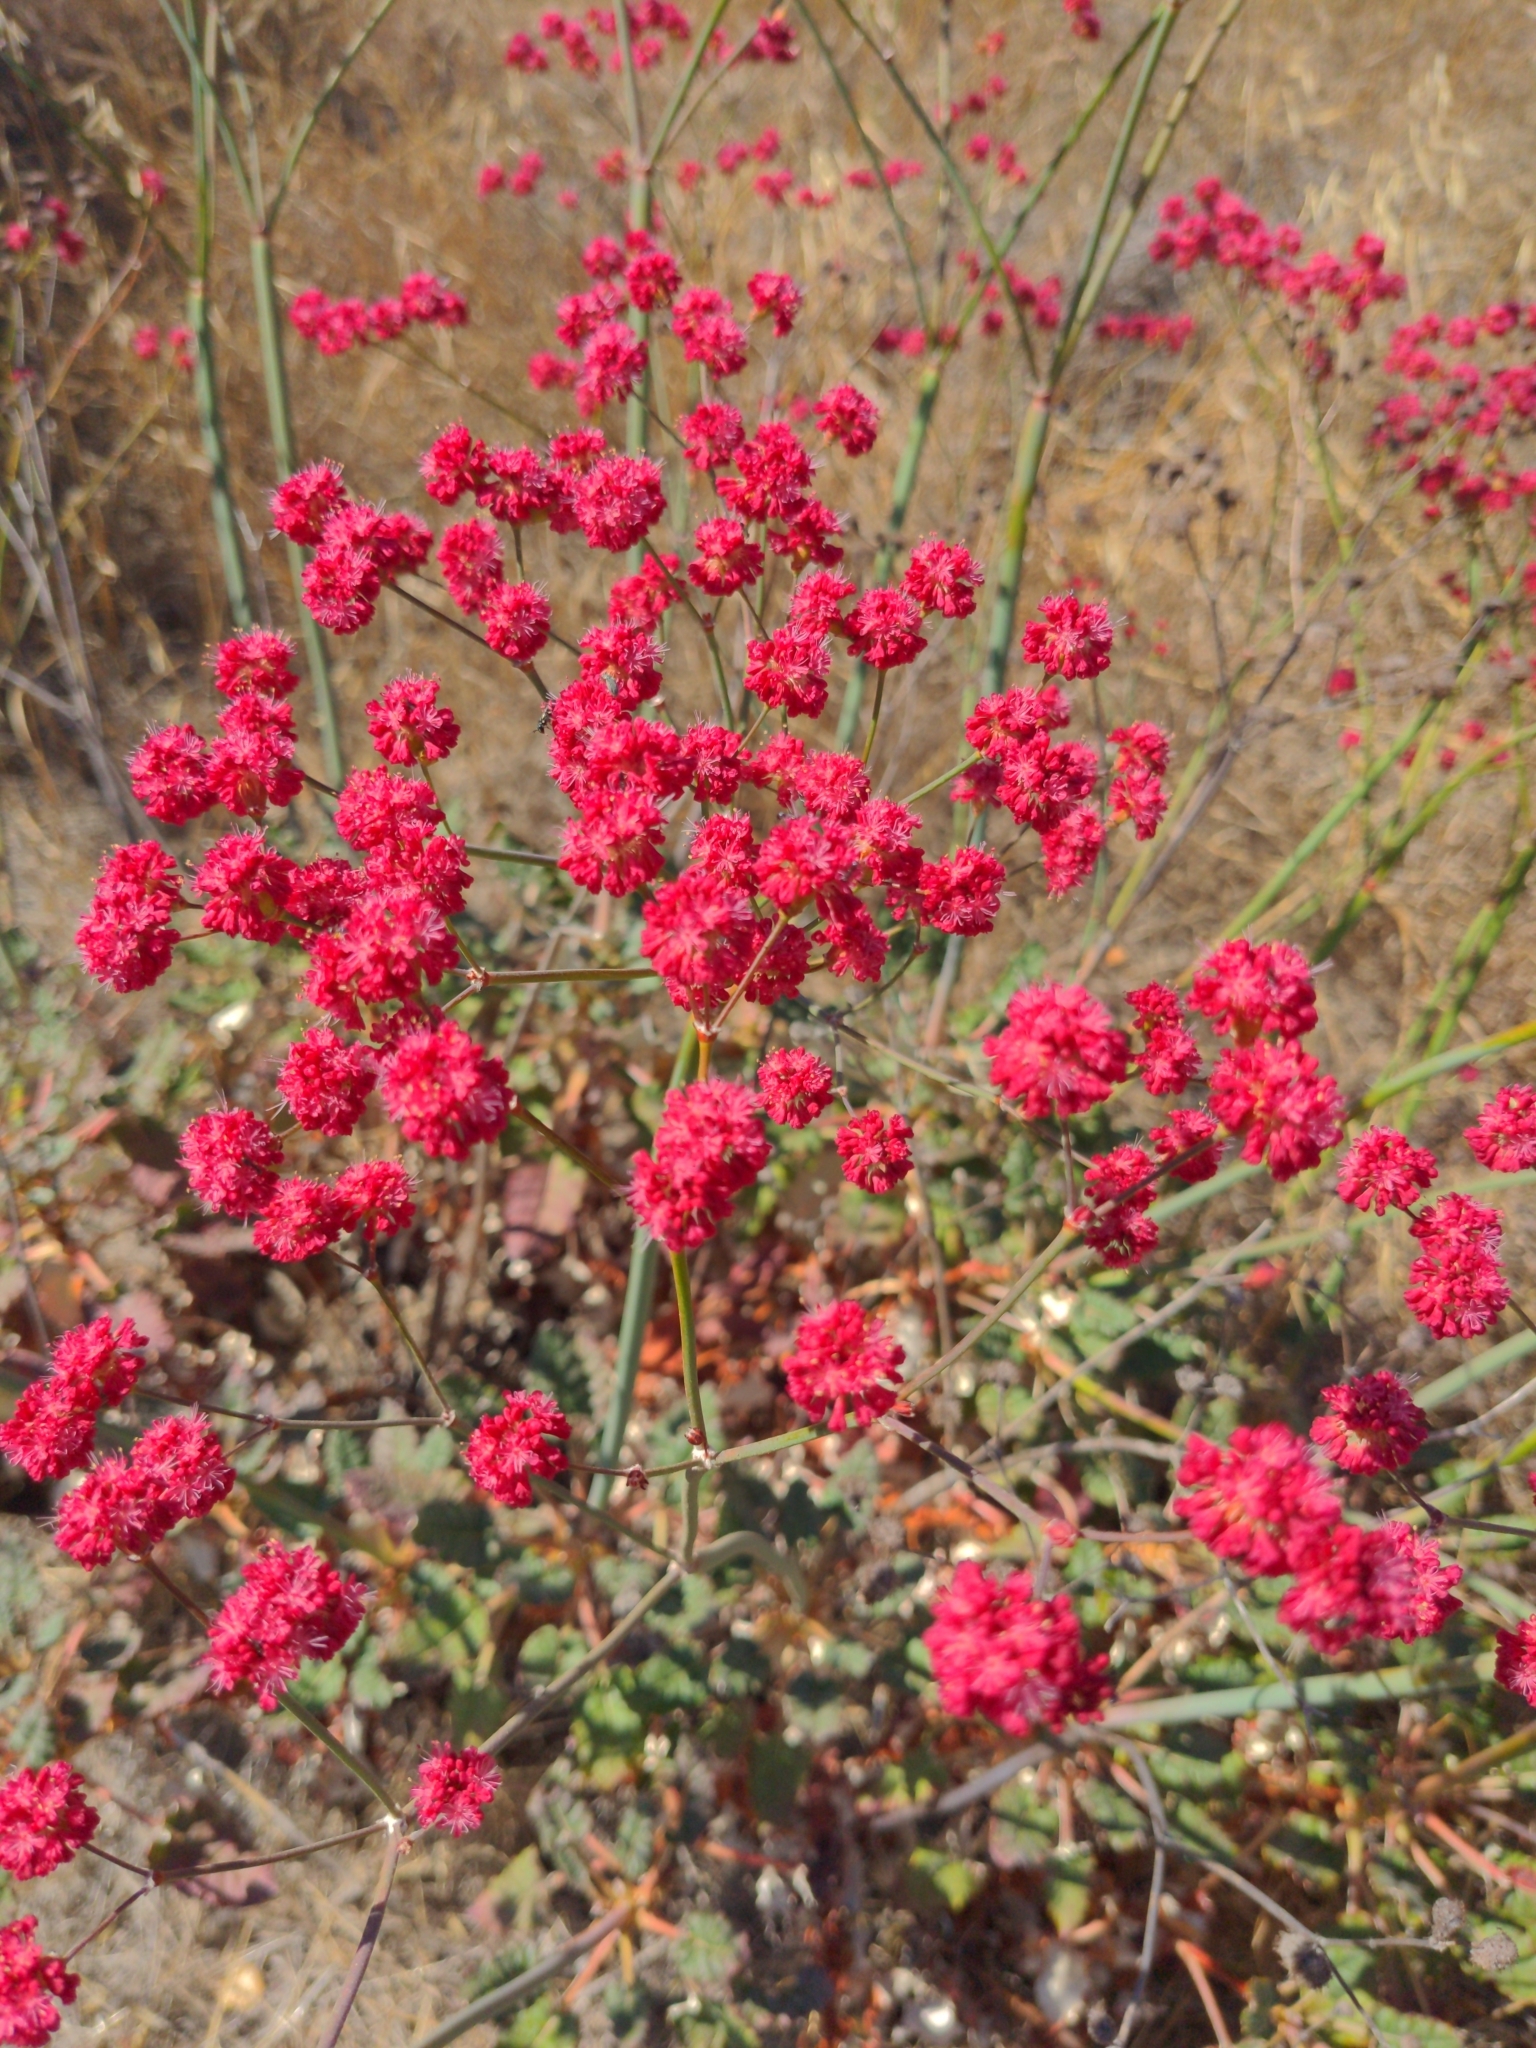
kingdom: Plantae
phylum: Tracheophyta
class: Magnoliopsida
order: Caryophyllales
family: Polygonaceae
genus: Eriogonum
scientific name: Eriogonum grande
